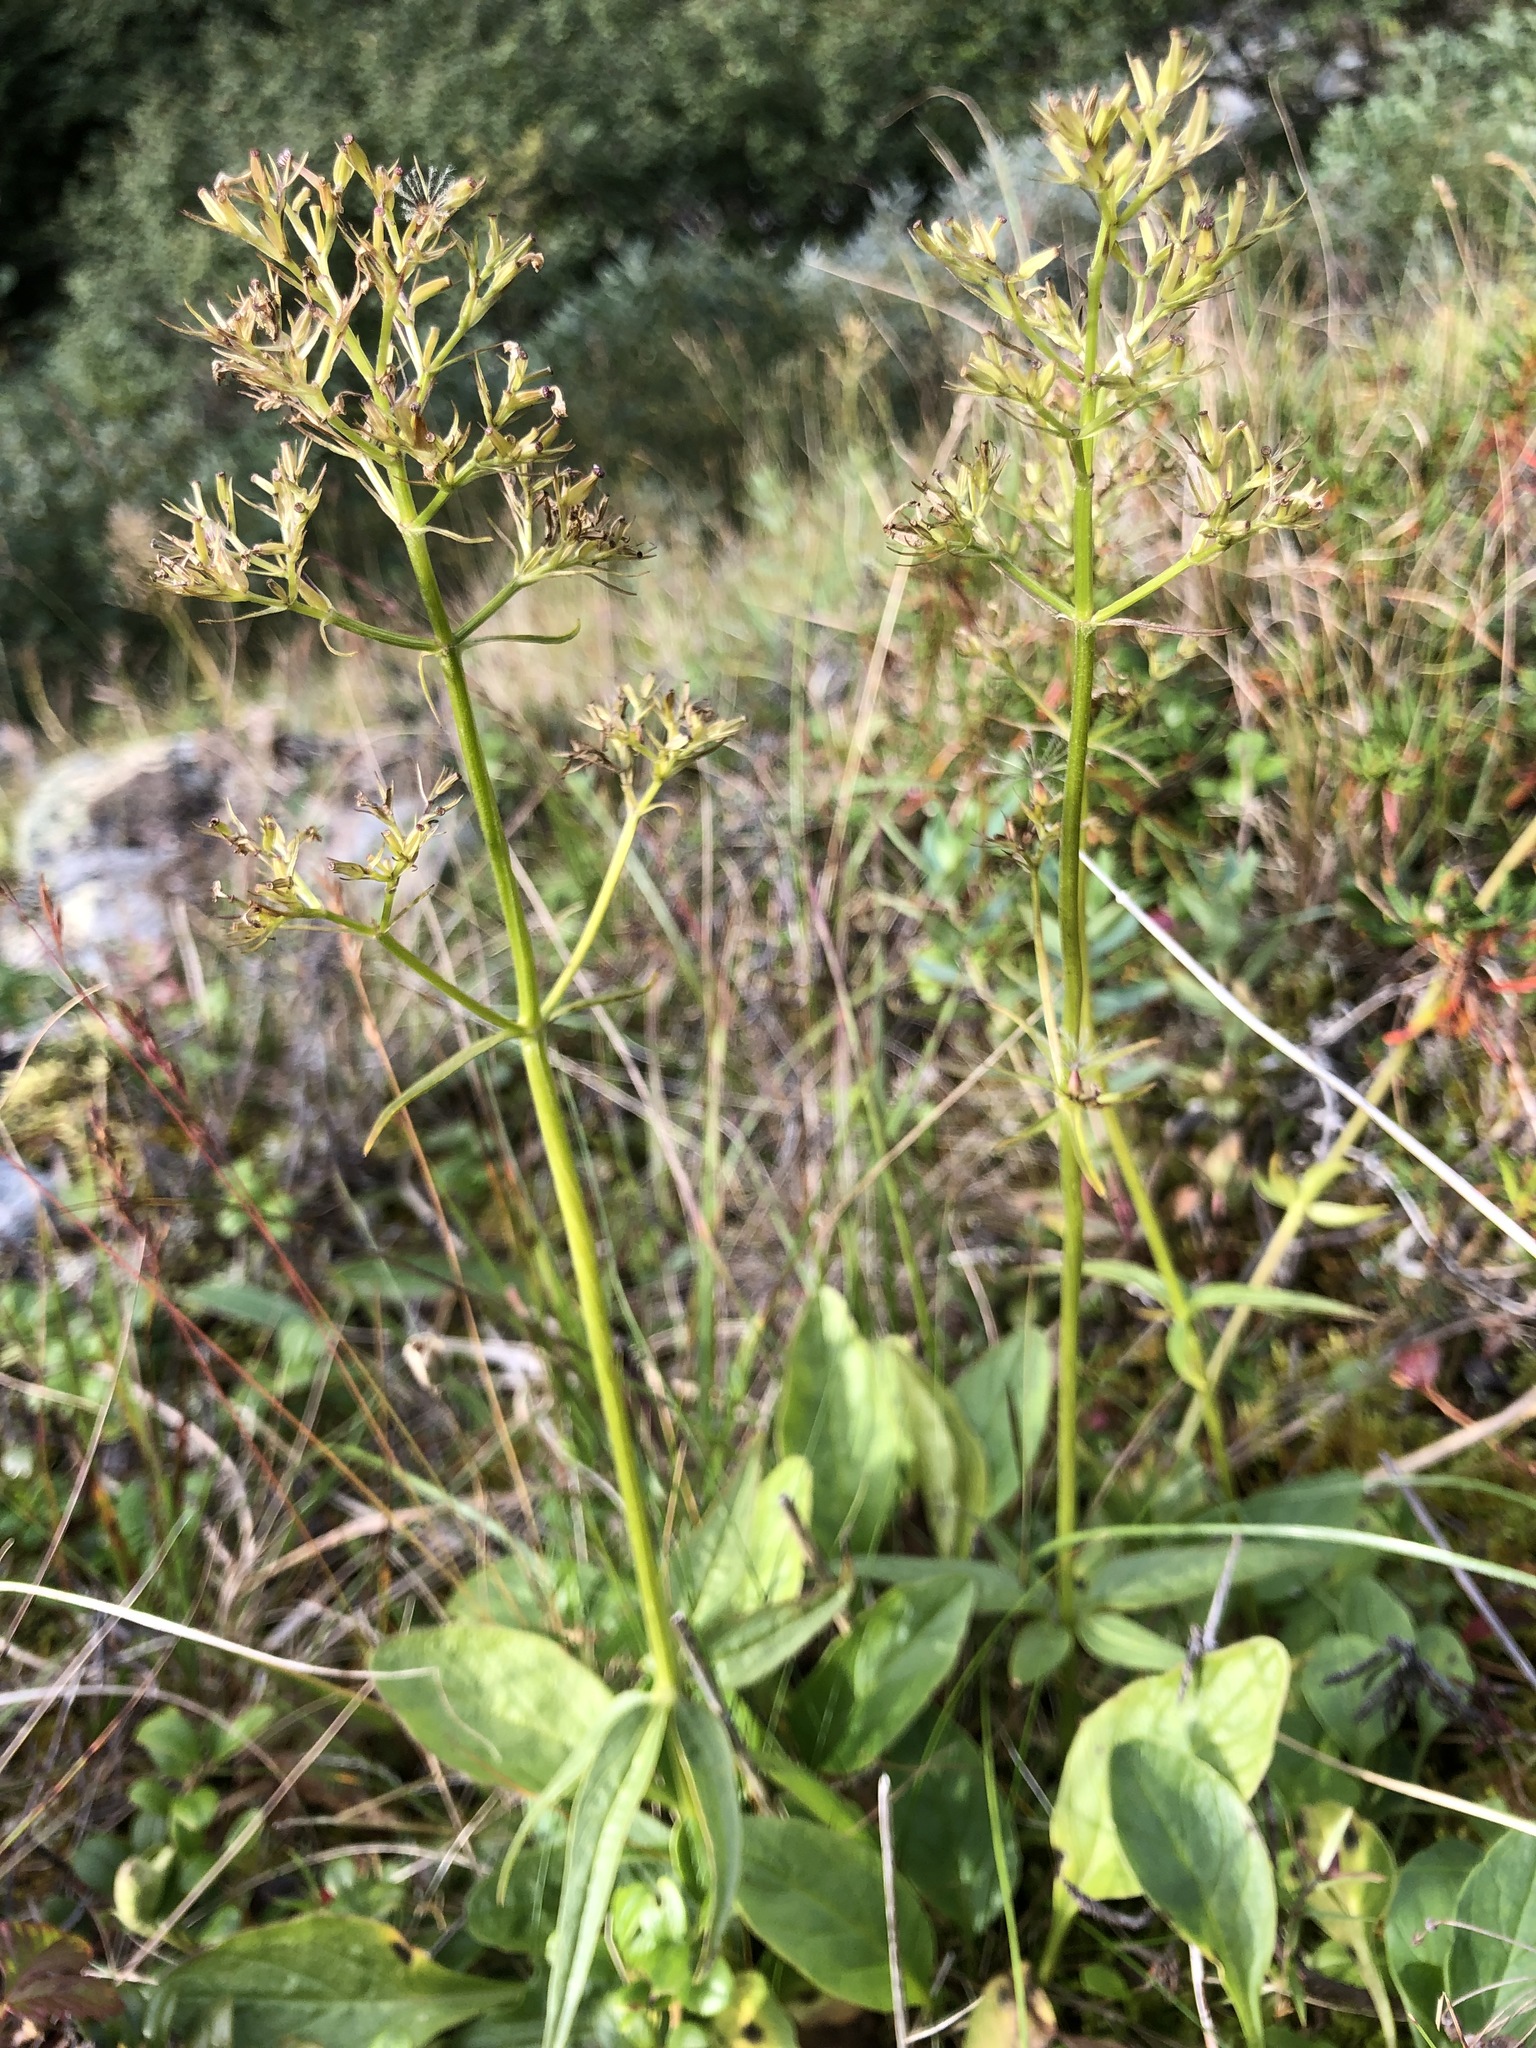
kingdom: Plantae
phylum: Tracheophyta
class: Magnoliopsida
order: Dipsacales
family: Caprifoliaceae
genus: Valeriana
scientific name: Valeriana capitata
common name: Capitate valerian
